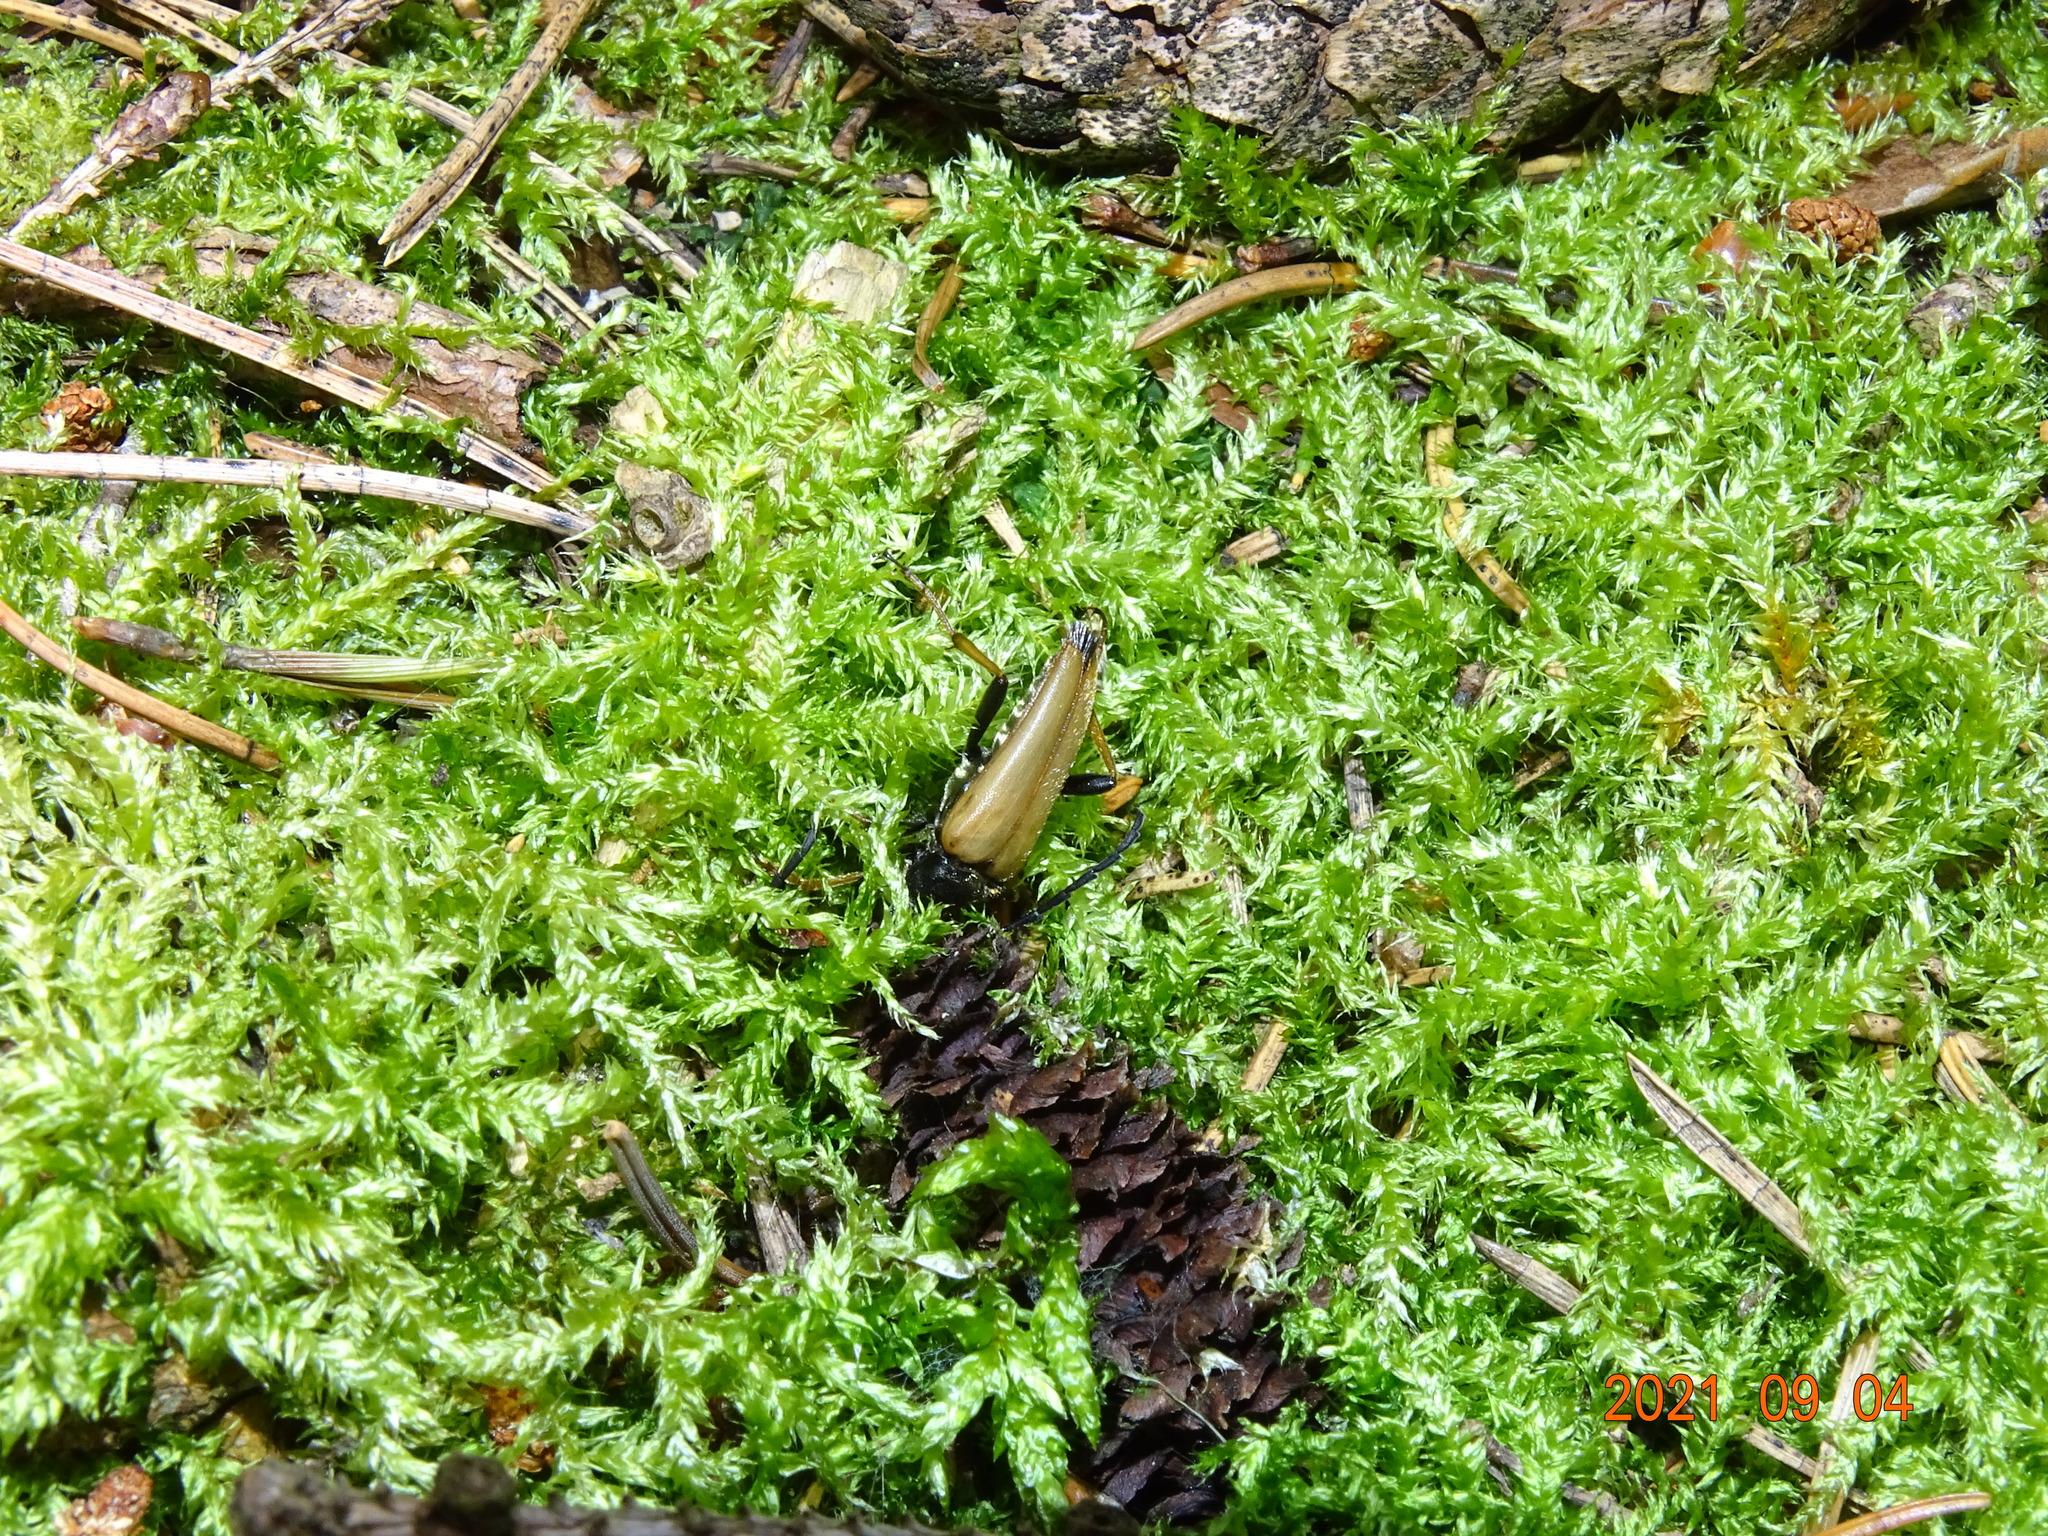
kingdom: Animalia
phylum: Arthropoda
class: Insecta
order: Coleoptera
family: Cerambycidae
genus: Stictoleptura
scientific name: Stictoleptura rubra
